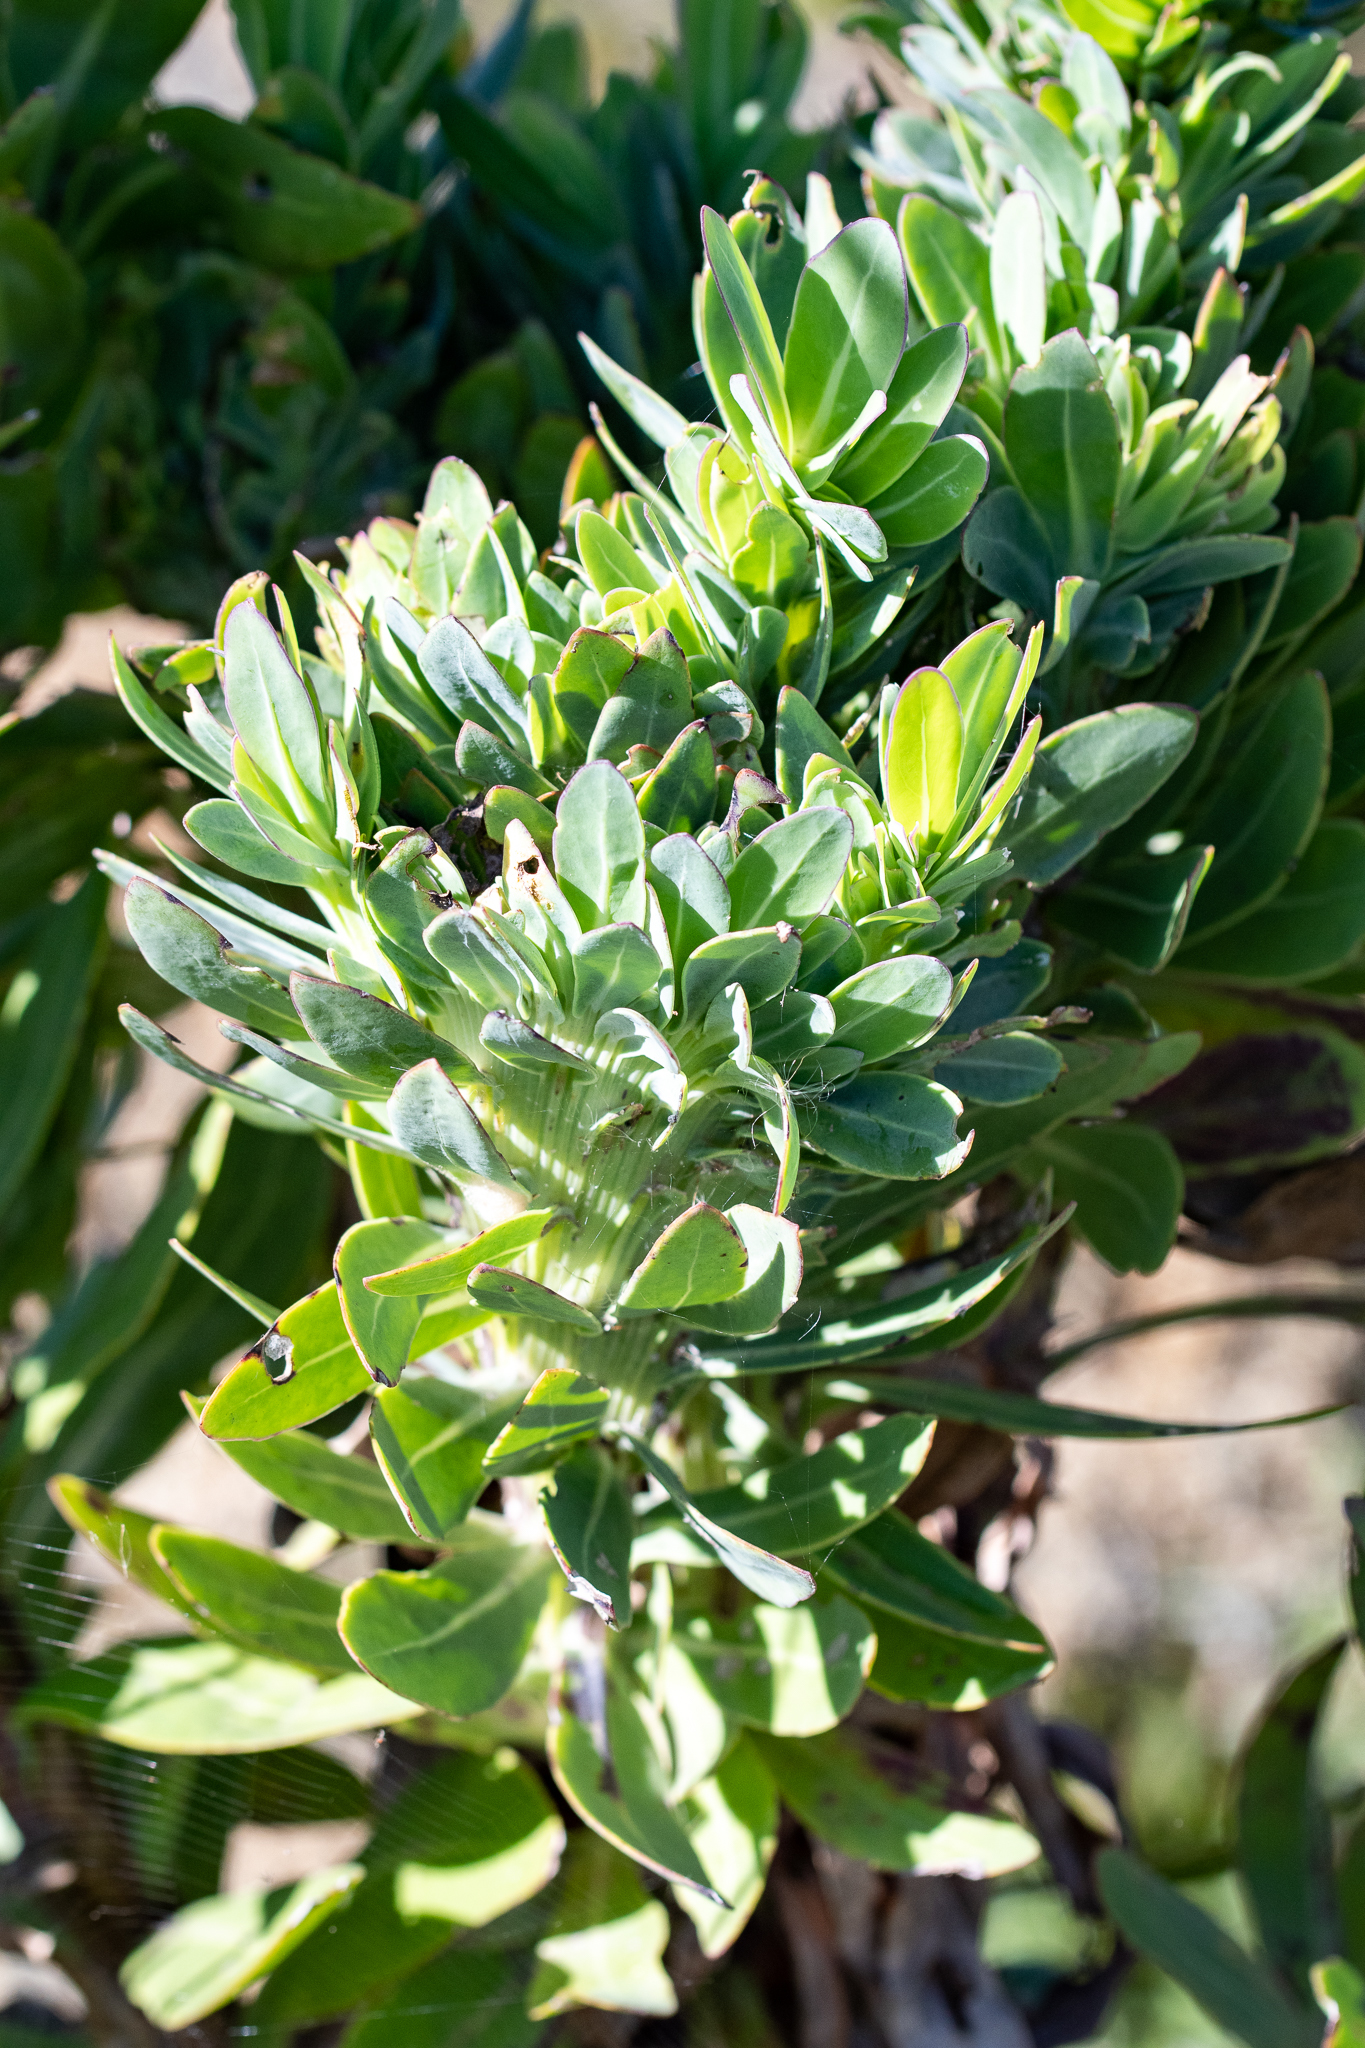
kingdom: Plantae
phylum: Tracheophyta
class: Magnoliopsida
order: Asterales
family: Asteraceae
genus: Othonna
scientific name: Othonna quinquedentata
